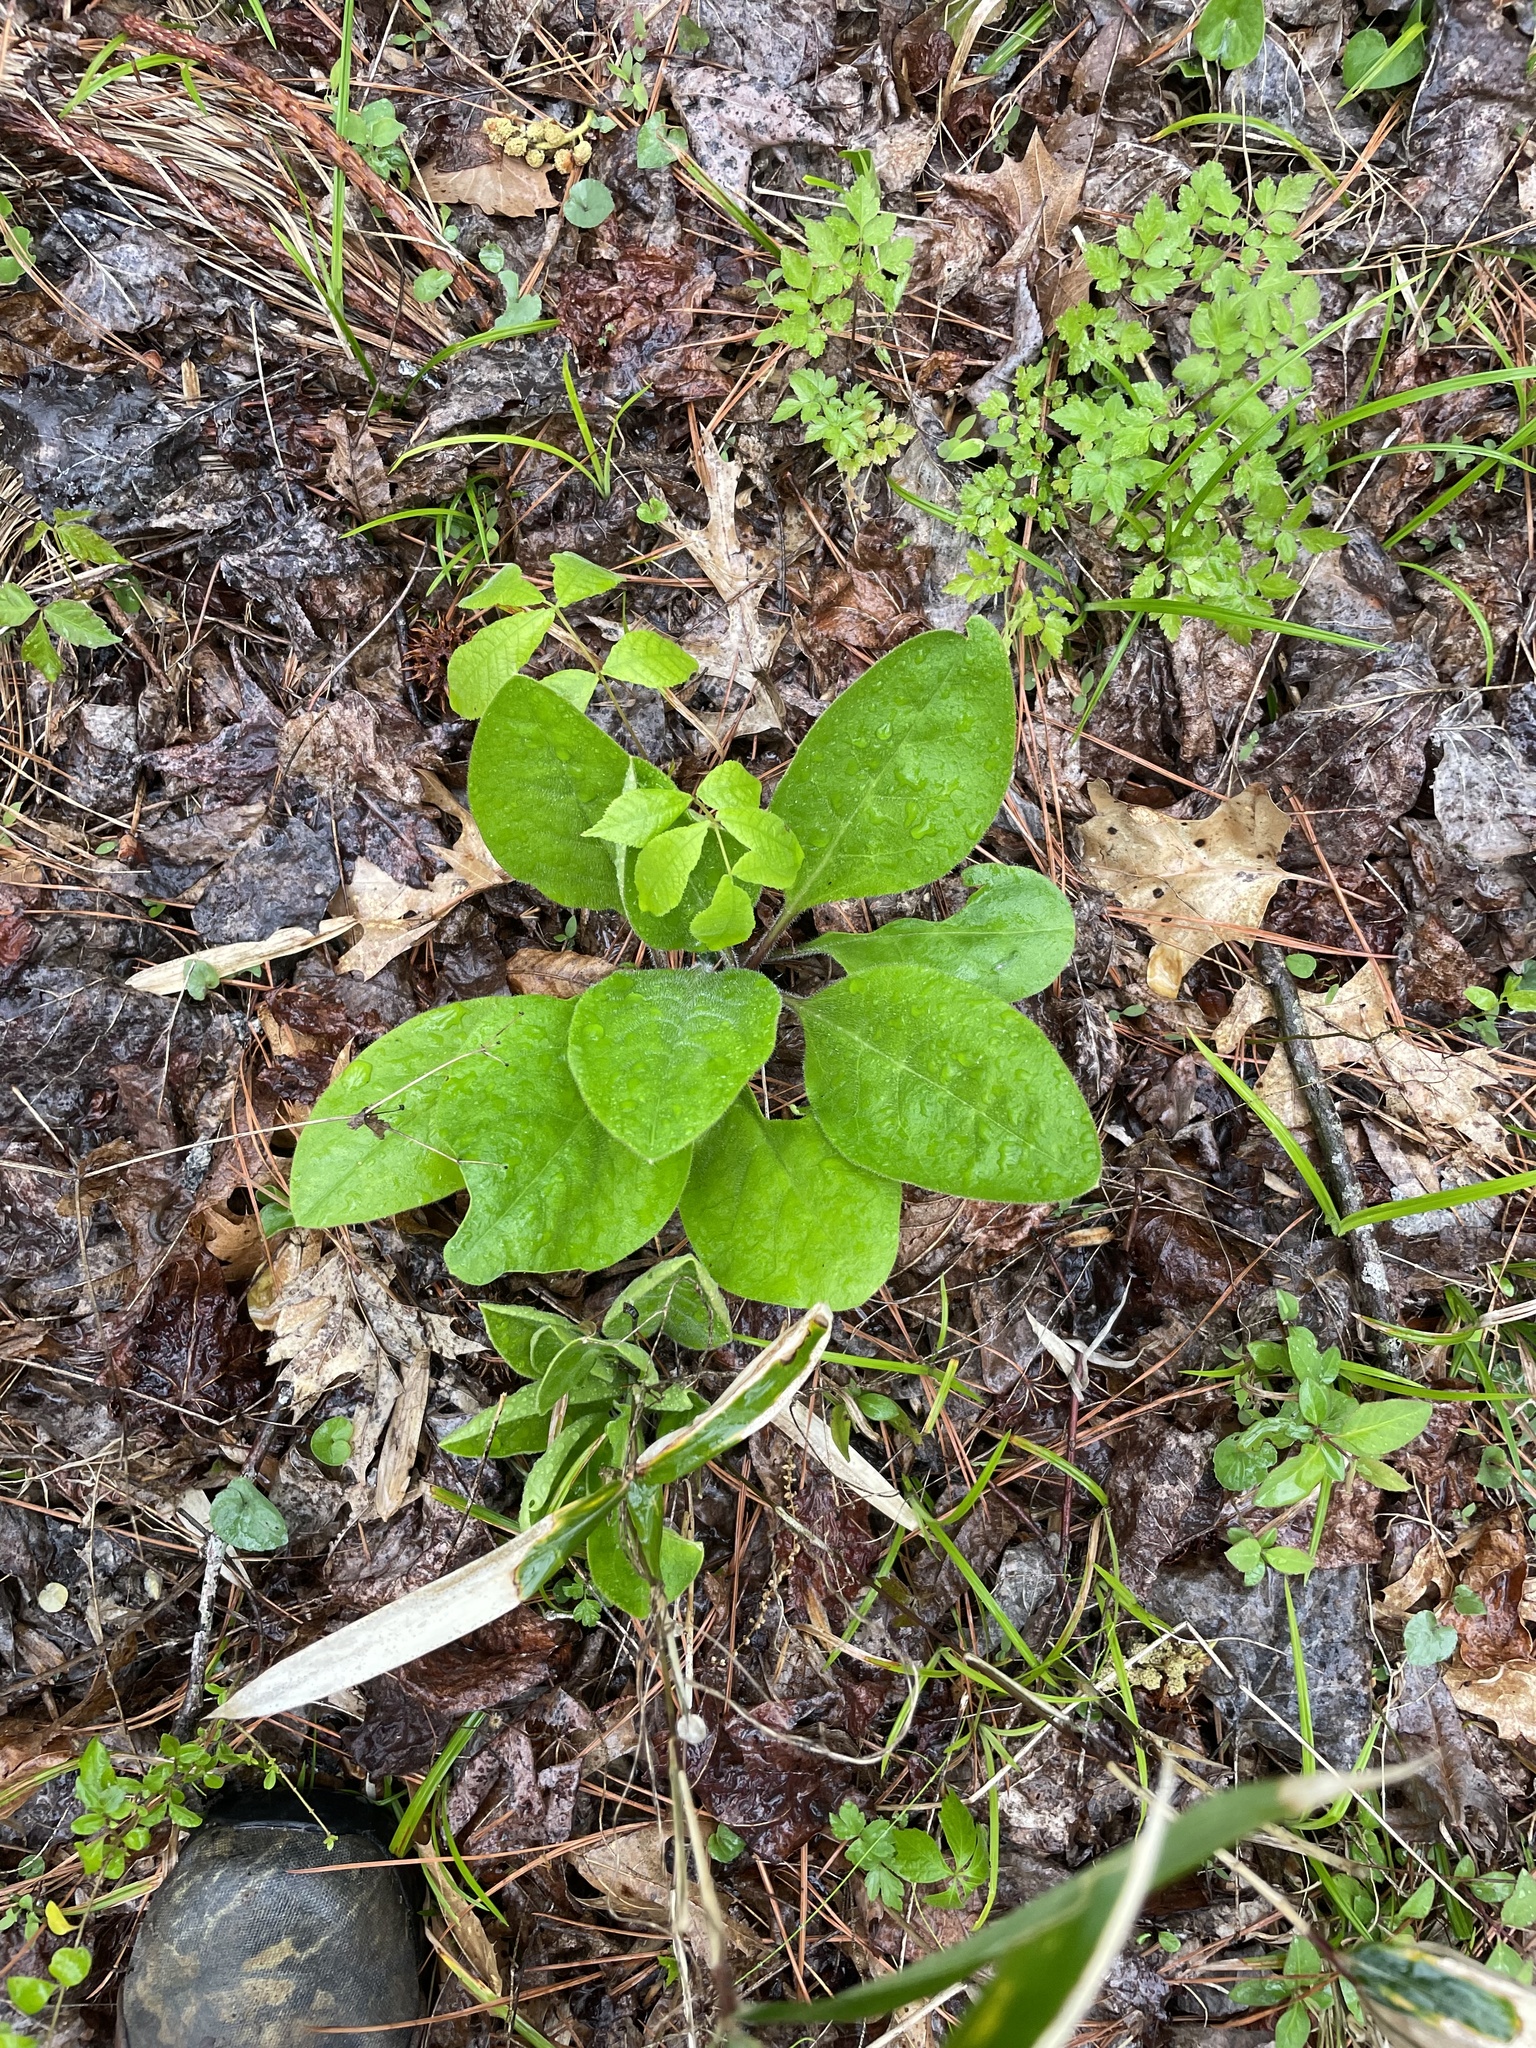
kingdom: Plantae
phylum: Tracheophyta
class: Magnoliopsida
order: Boraginales
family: Boraginaceae
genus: Andersonglossum
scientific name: Andersonglossum virginianum
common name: Wild comfrey
